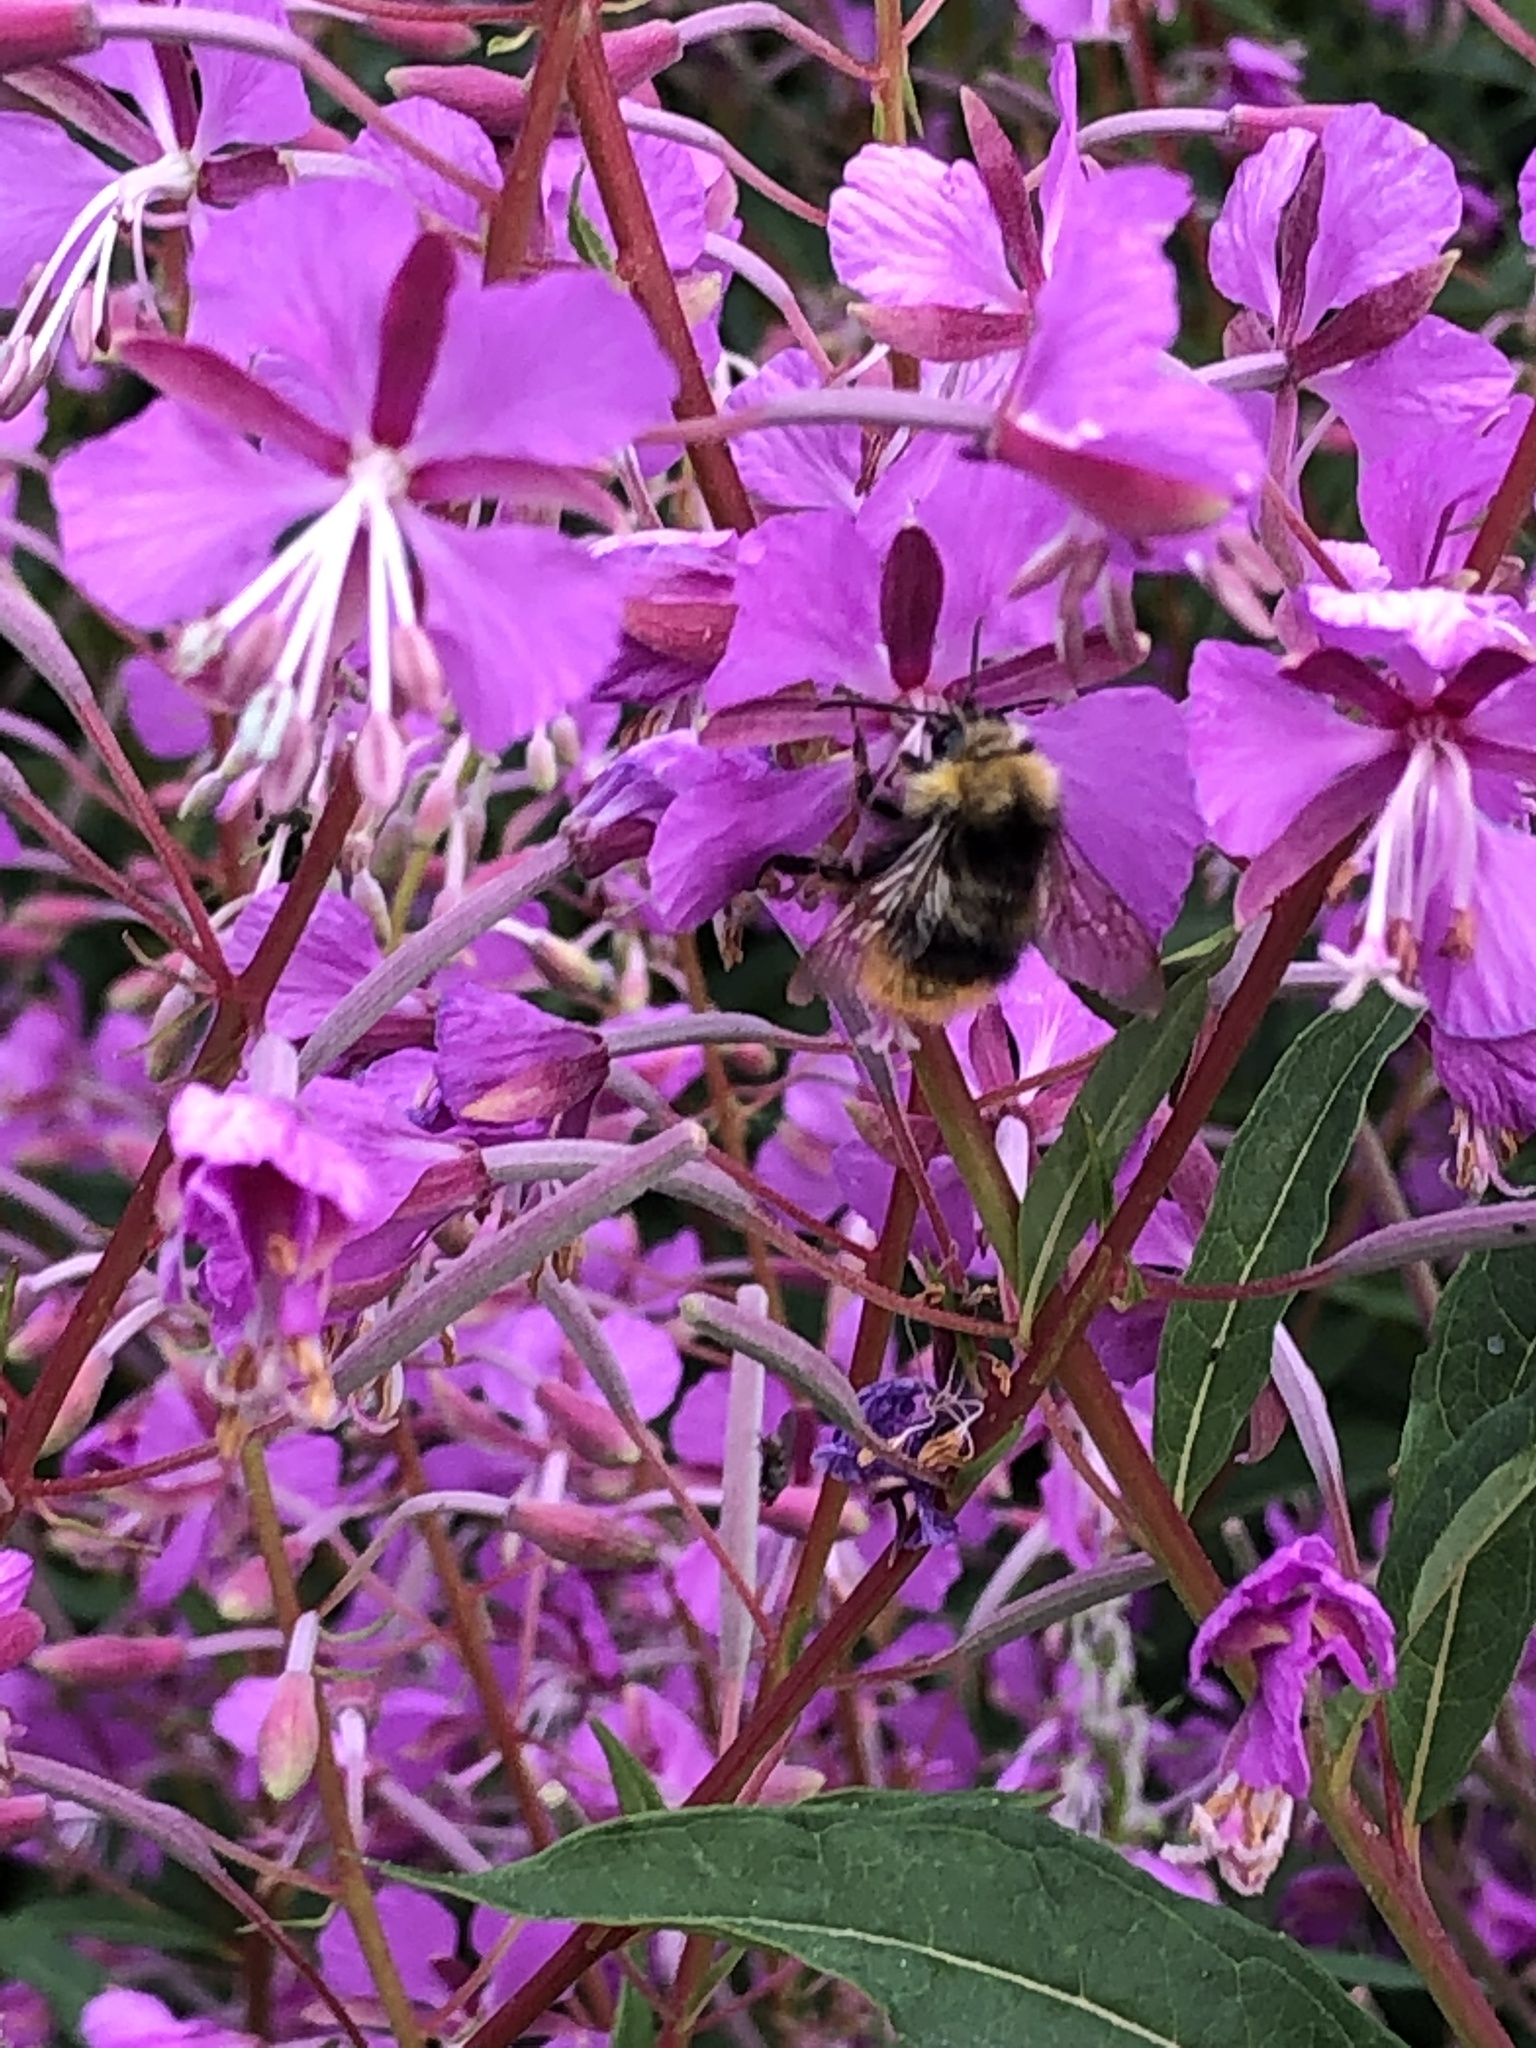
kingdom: Animalia
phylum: Arthropoda
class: Insecta
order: Hymenoptera
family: Apidae
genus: Bombus
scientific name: Bombus pratorum
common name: Early humble-bee
